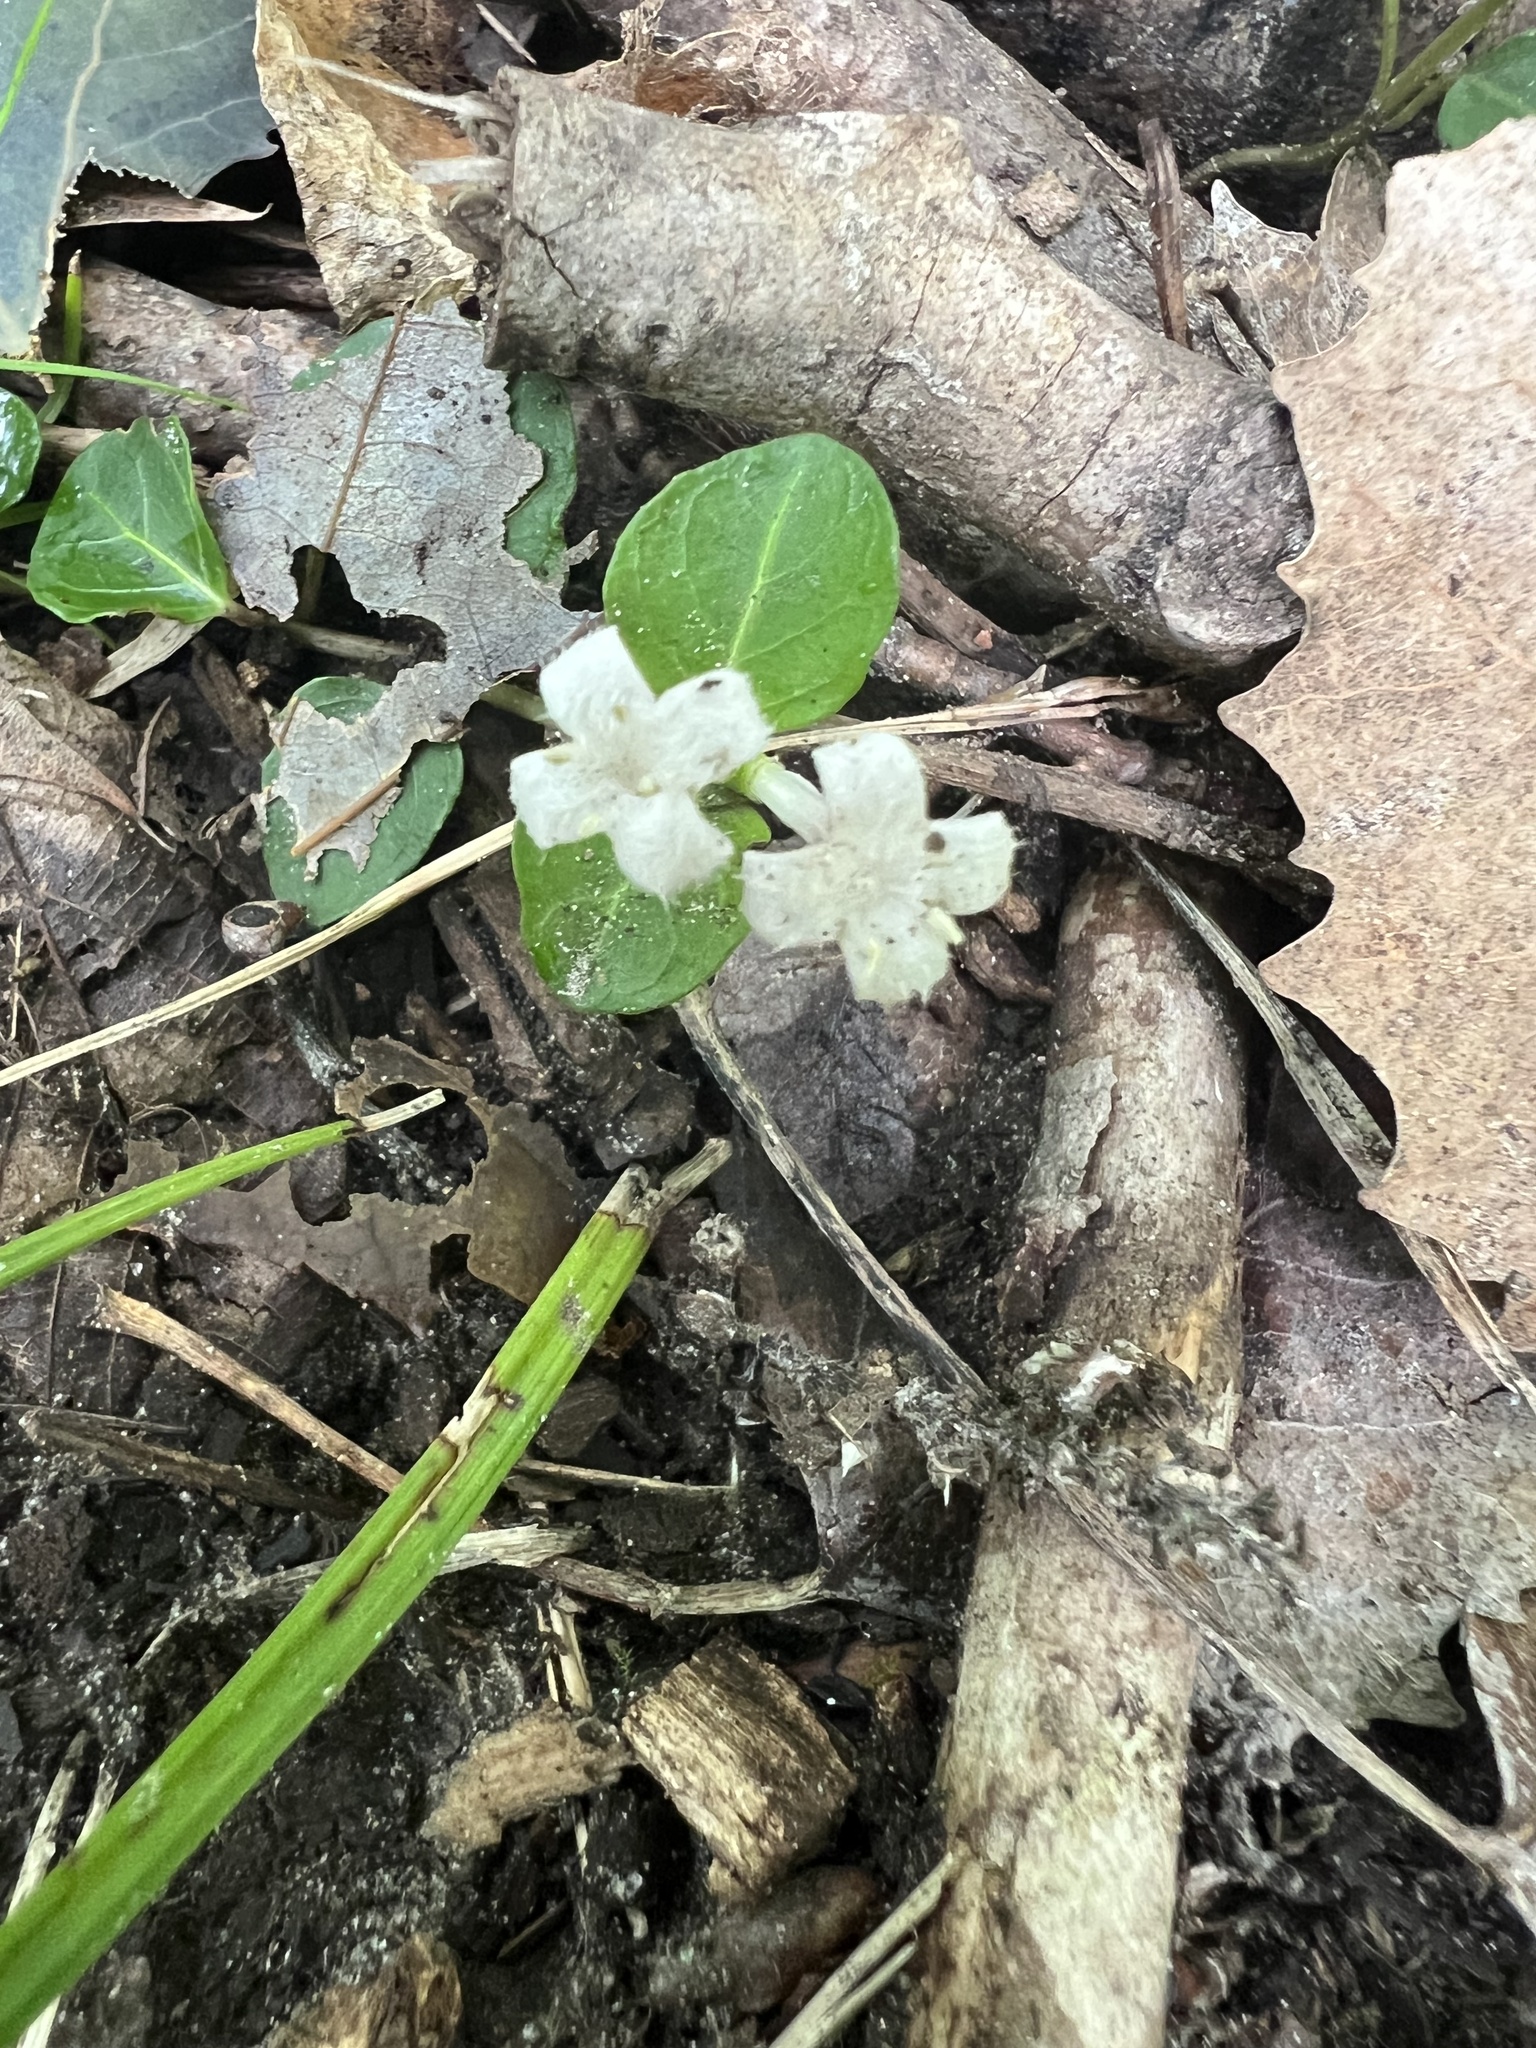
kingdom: Plantae
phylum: Tracheophyta
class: Magnoliopsida
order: Gentianales
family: Rubiaceae
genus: Mitchella
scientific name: Mitchella repens
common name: Partridge-berry
